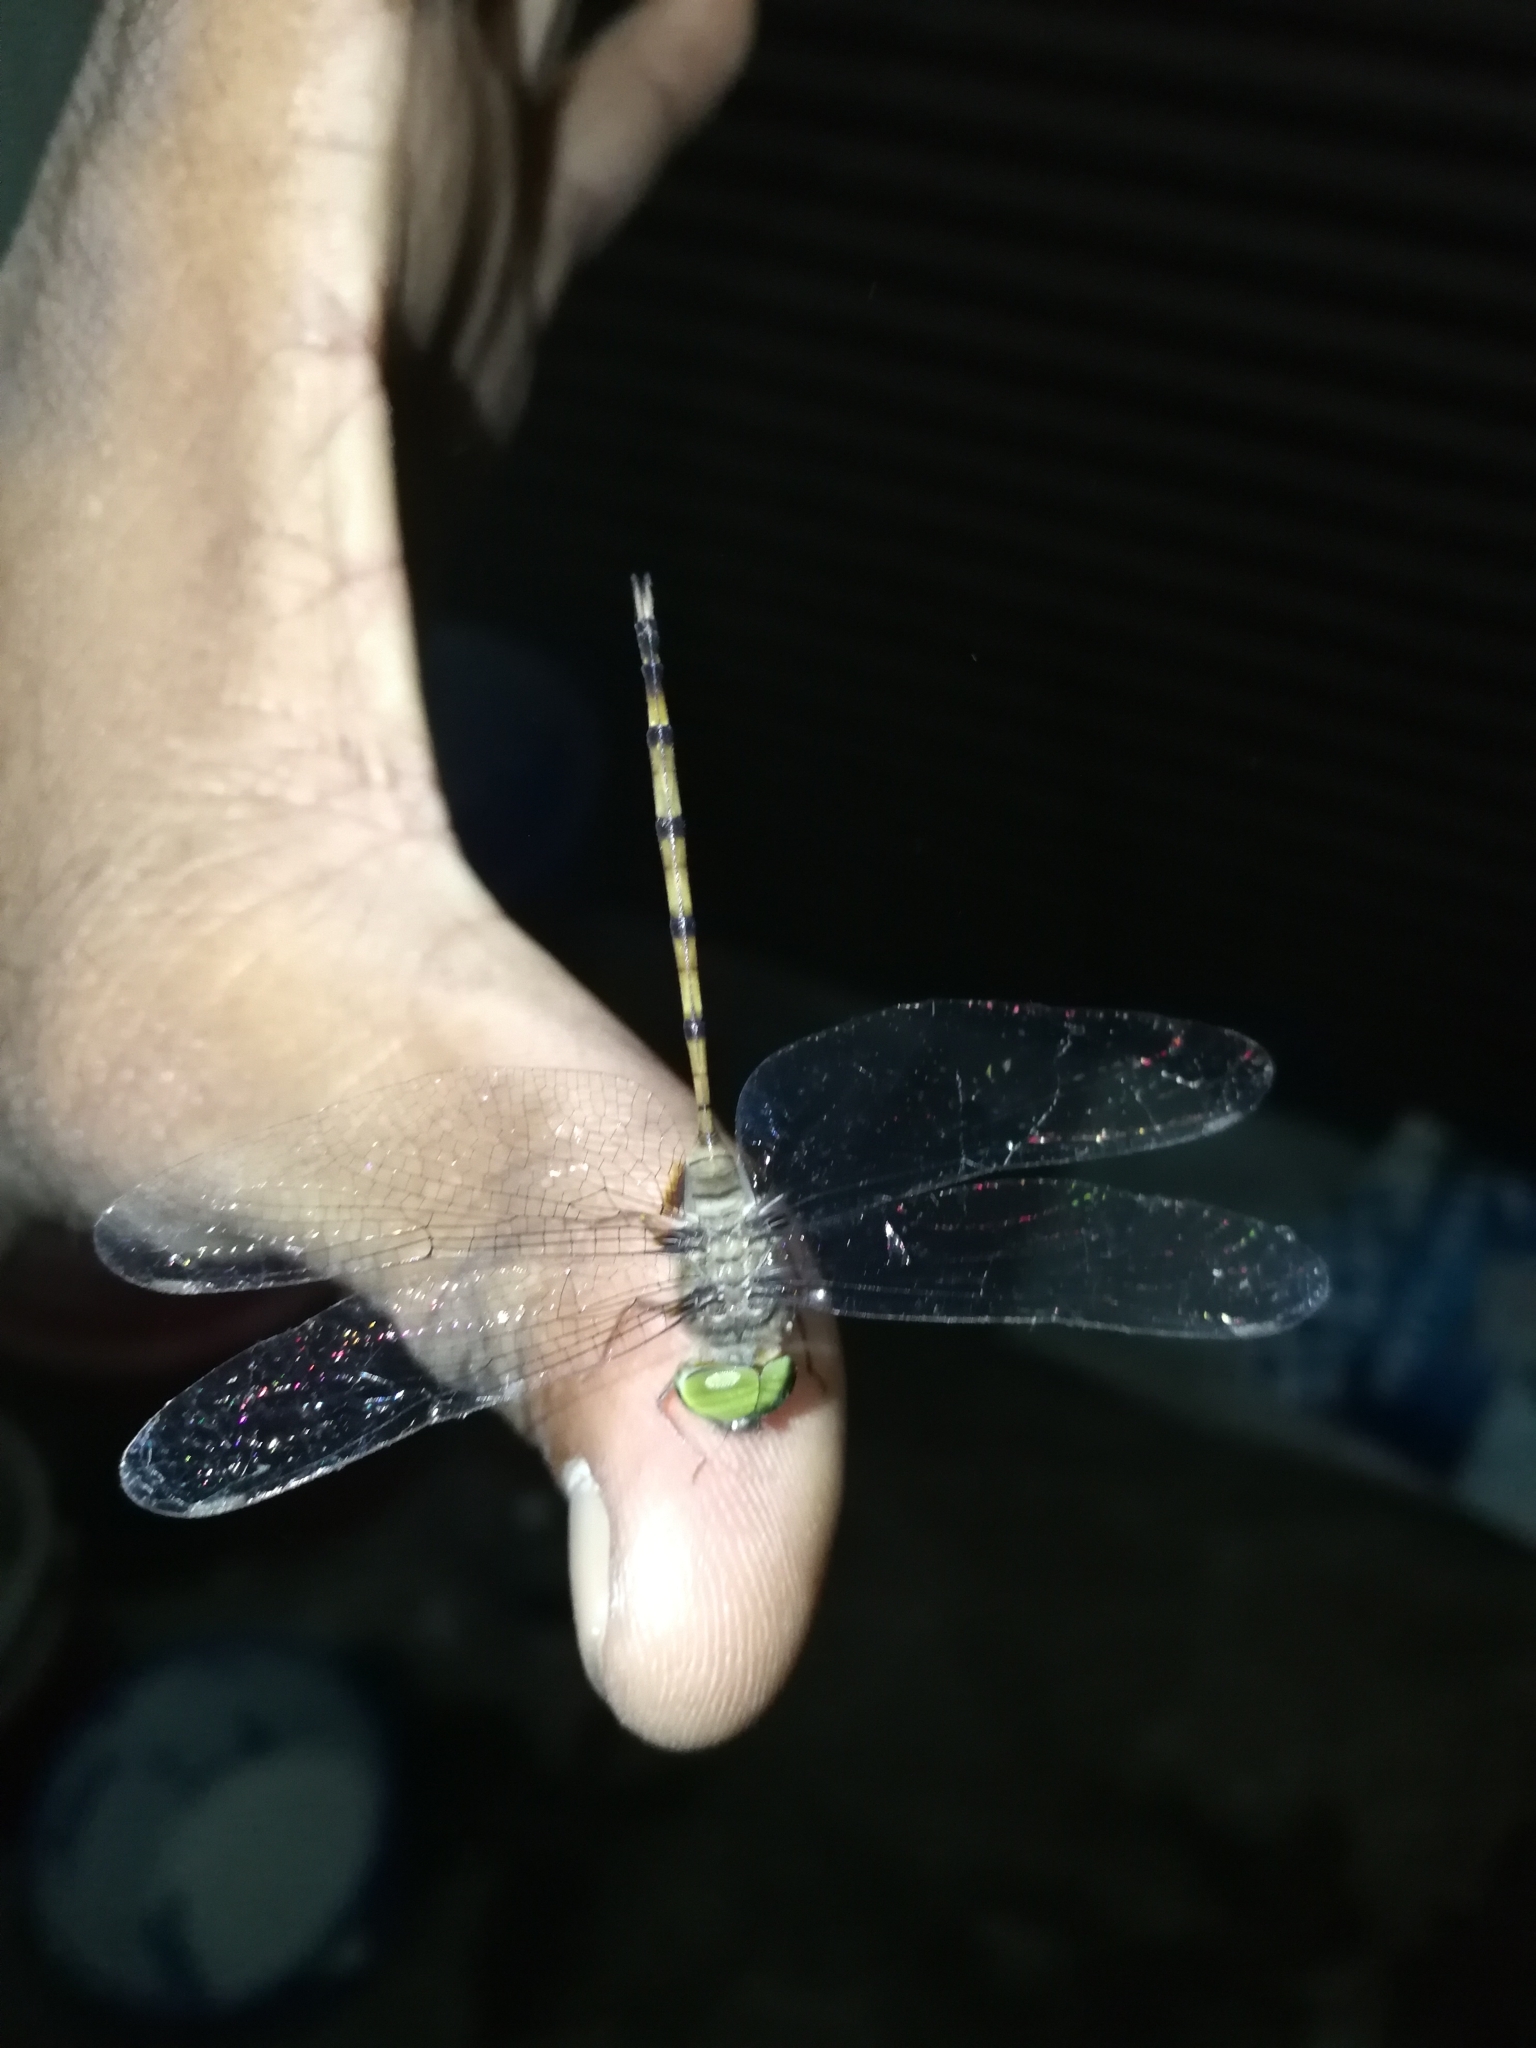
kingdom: Animalia
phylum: Arthropoda
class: Insecta
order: Odonata
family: Libellulidae
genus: Zyxomma
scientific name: Zyxomma petiolatum
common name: Dingy dusk-darter
